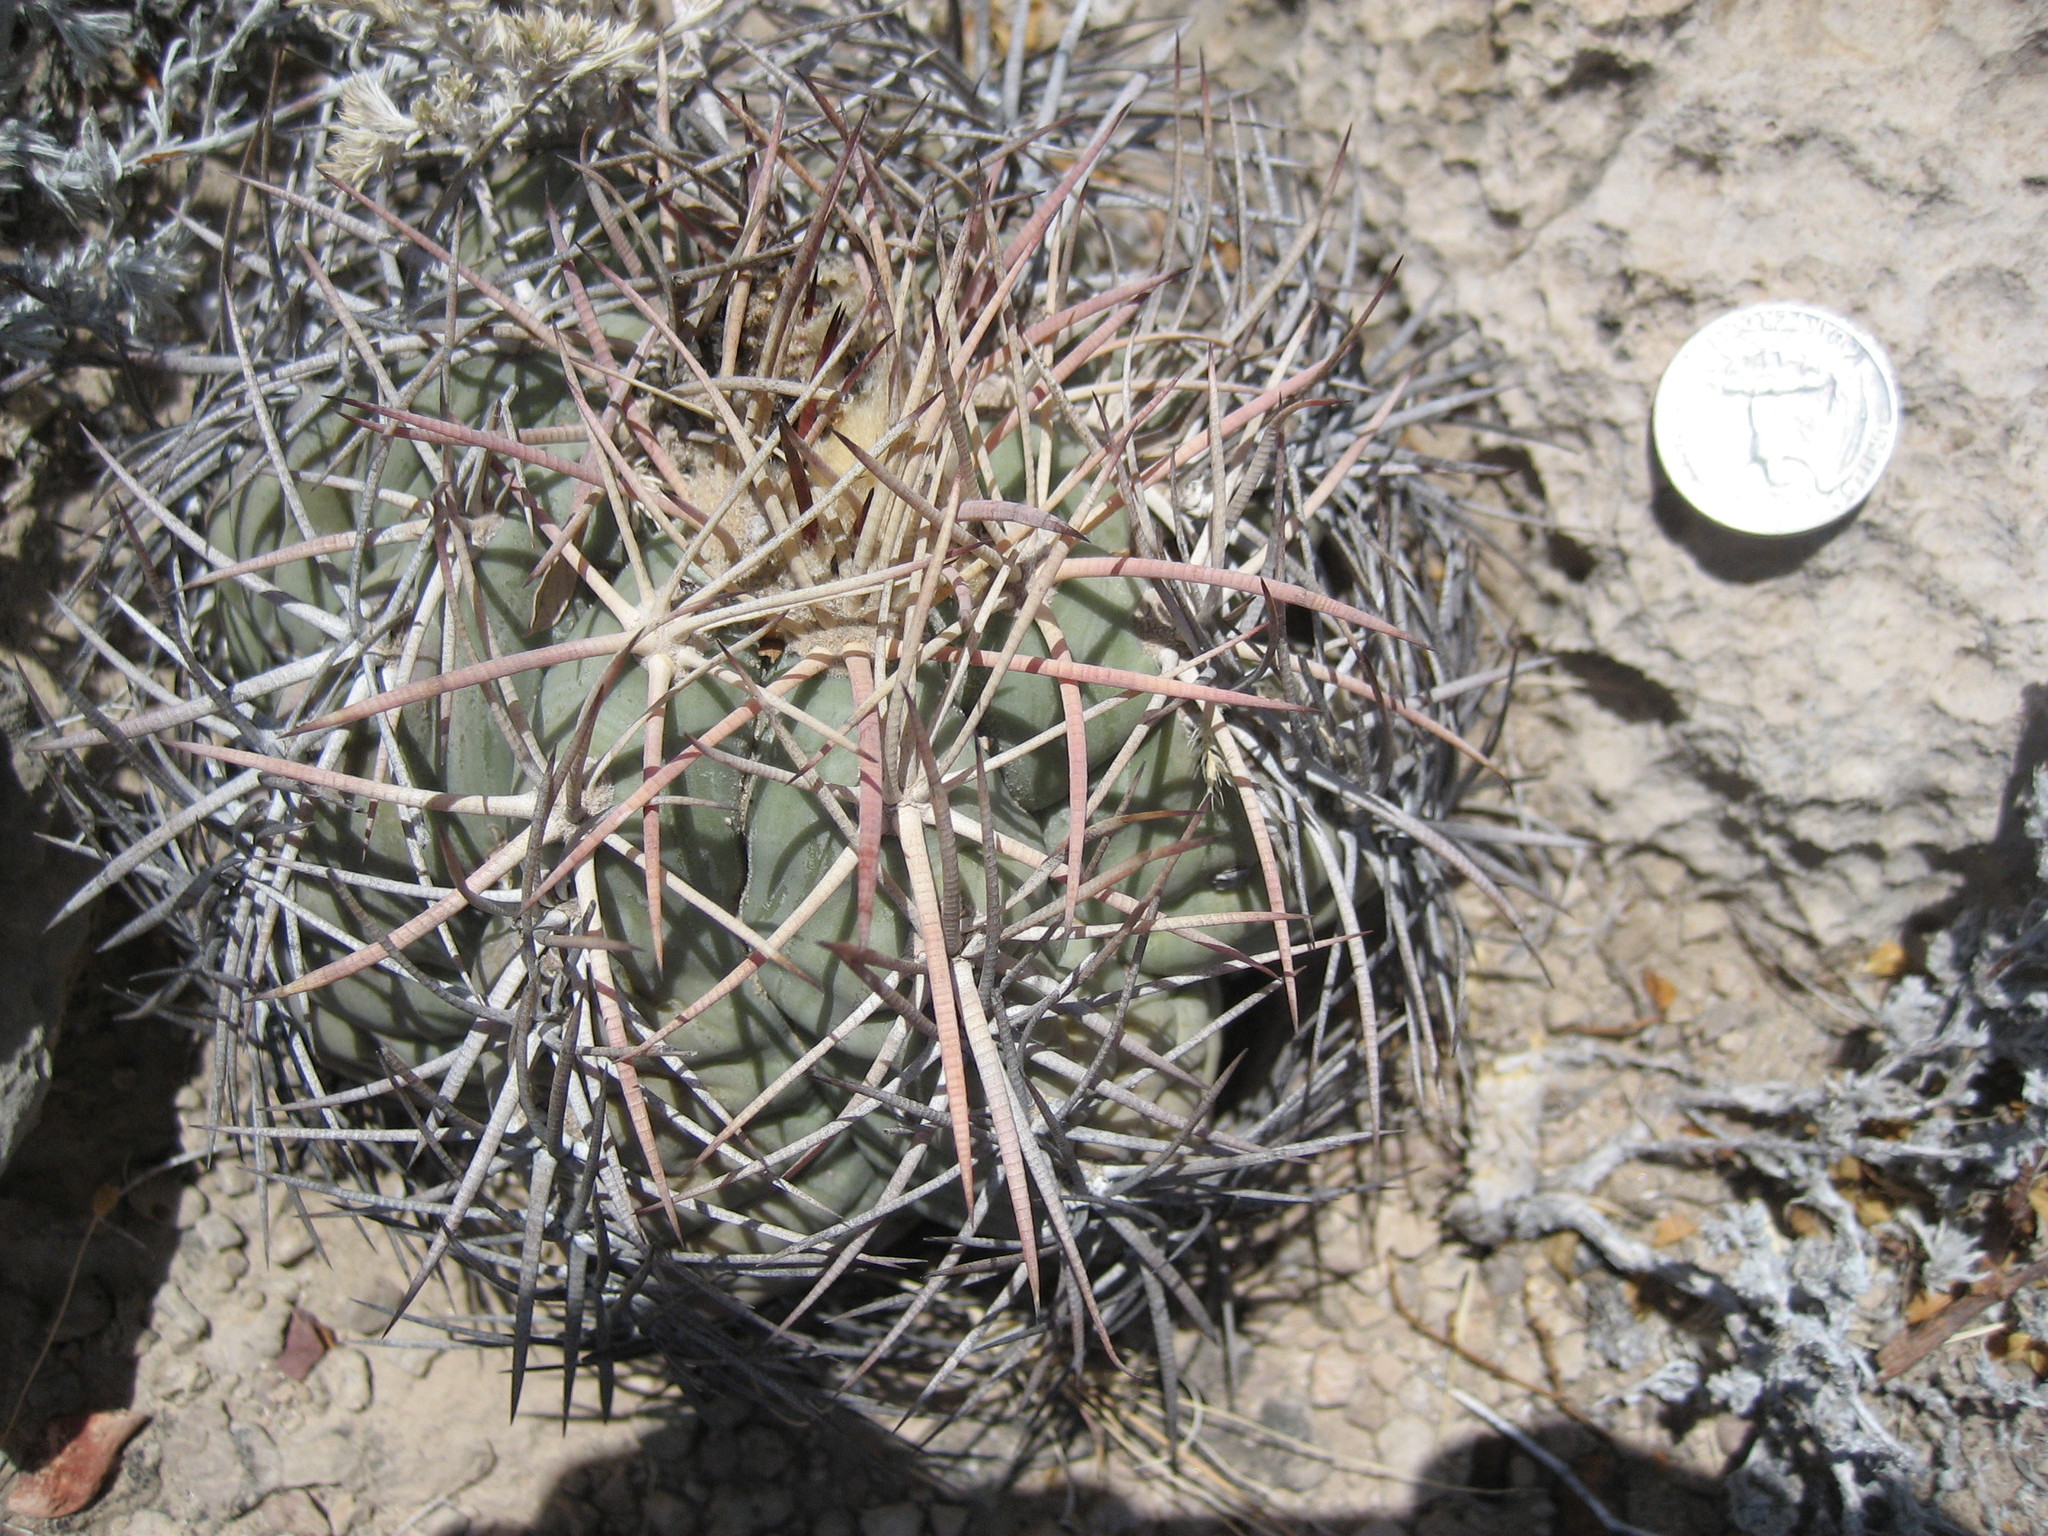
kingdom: Plantae
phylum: Tracheophyta
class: Magnoliopsida
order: Caryophyllales
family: Cactaceae
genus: Echinocactus
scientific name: Echinocactus horizonthalonius
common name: Devilshead
